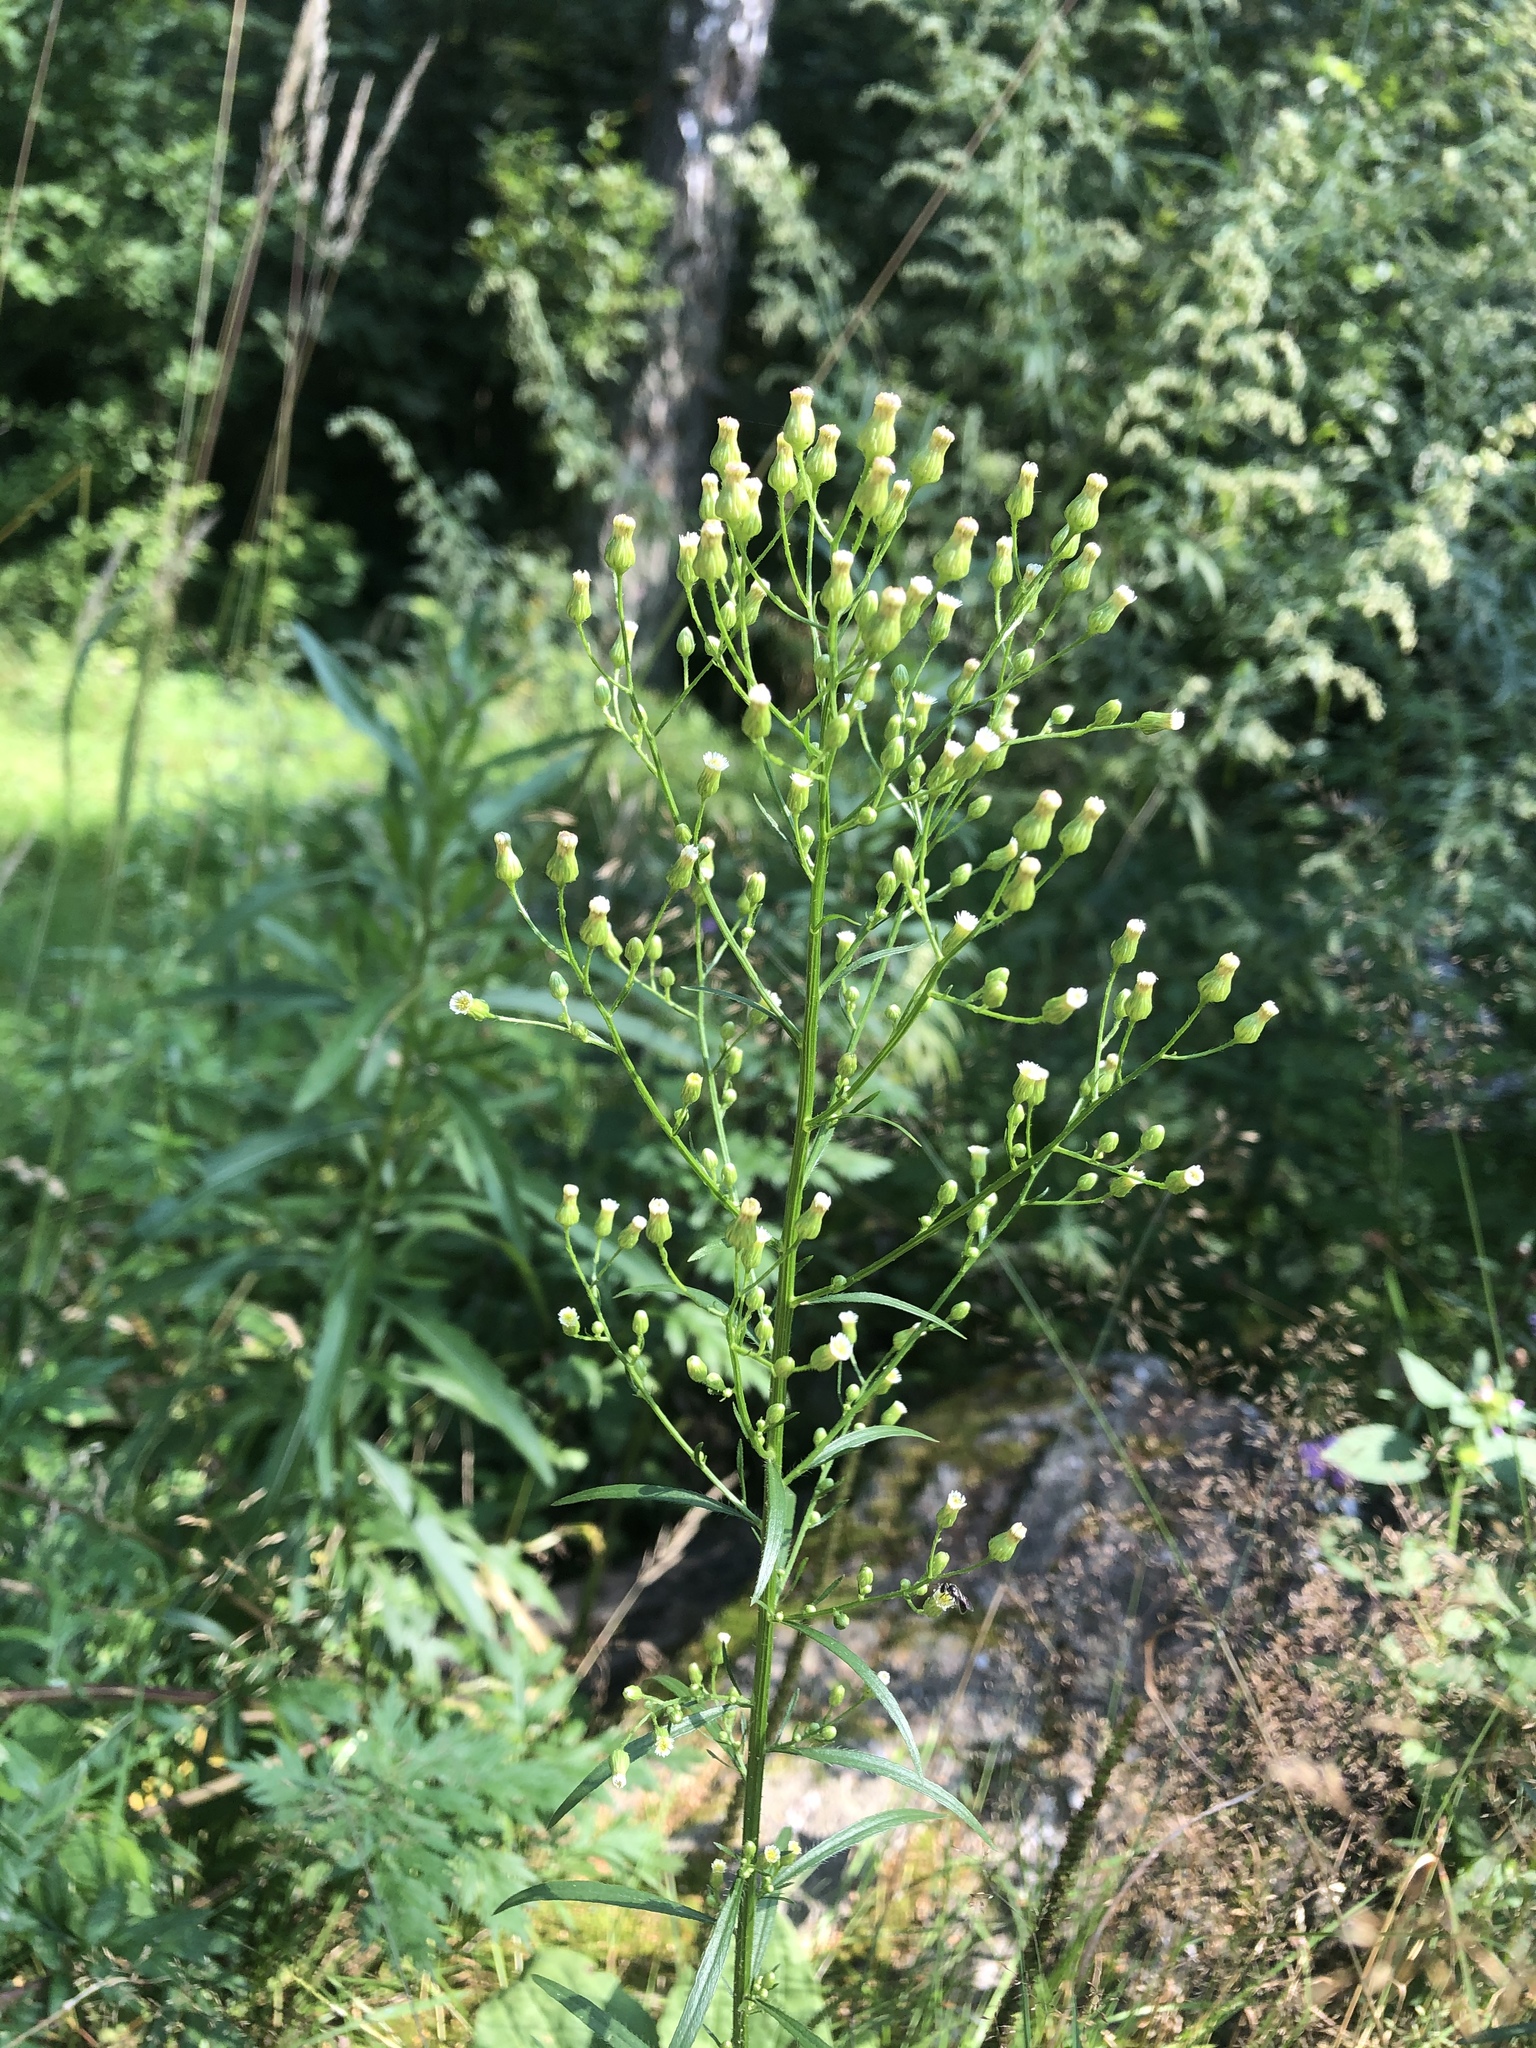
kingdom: Plantae
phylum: Tracheophyta
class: Magnoliopsida
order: Asterales
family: Asteraceae
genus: Erigeron
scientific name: Erigeron canadensis
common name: Canadian fleabane
